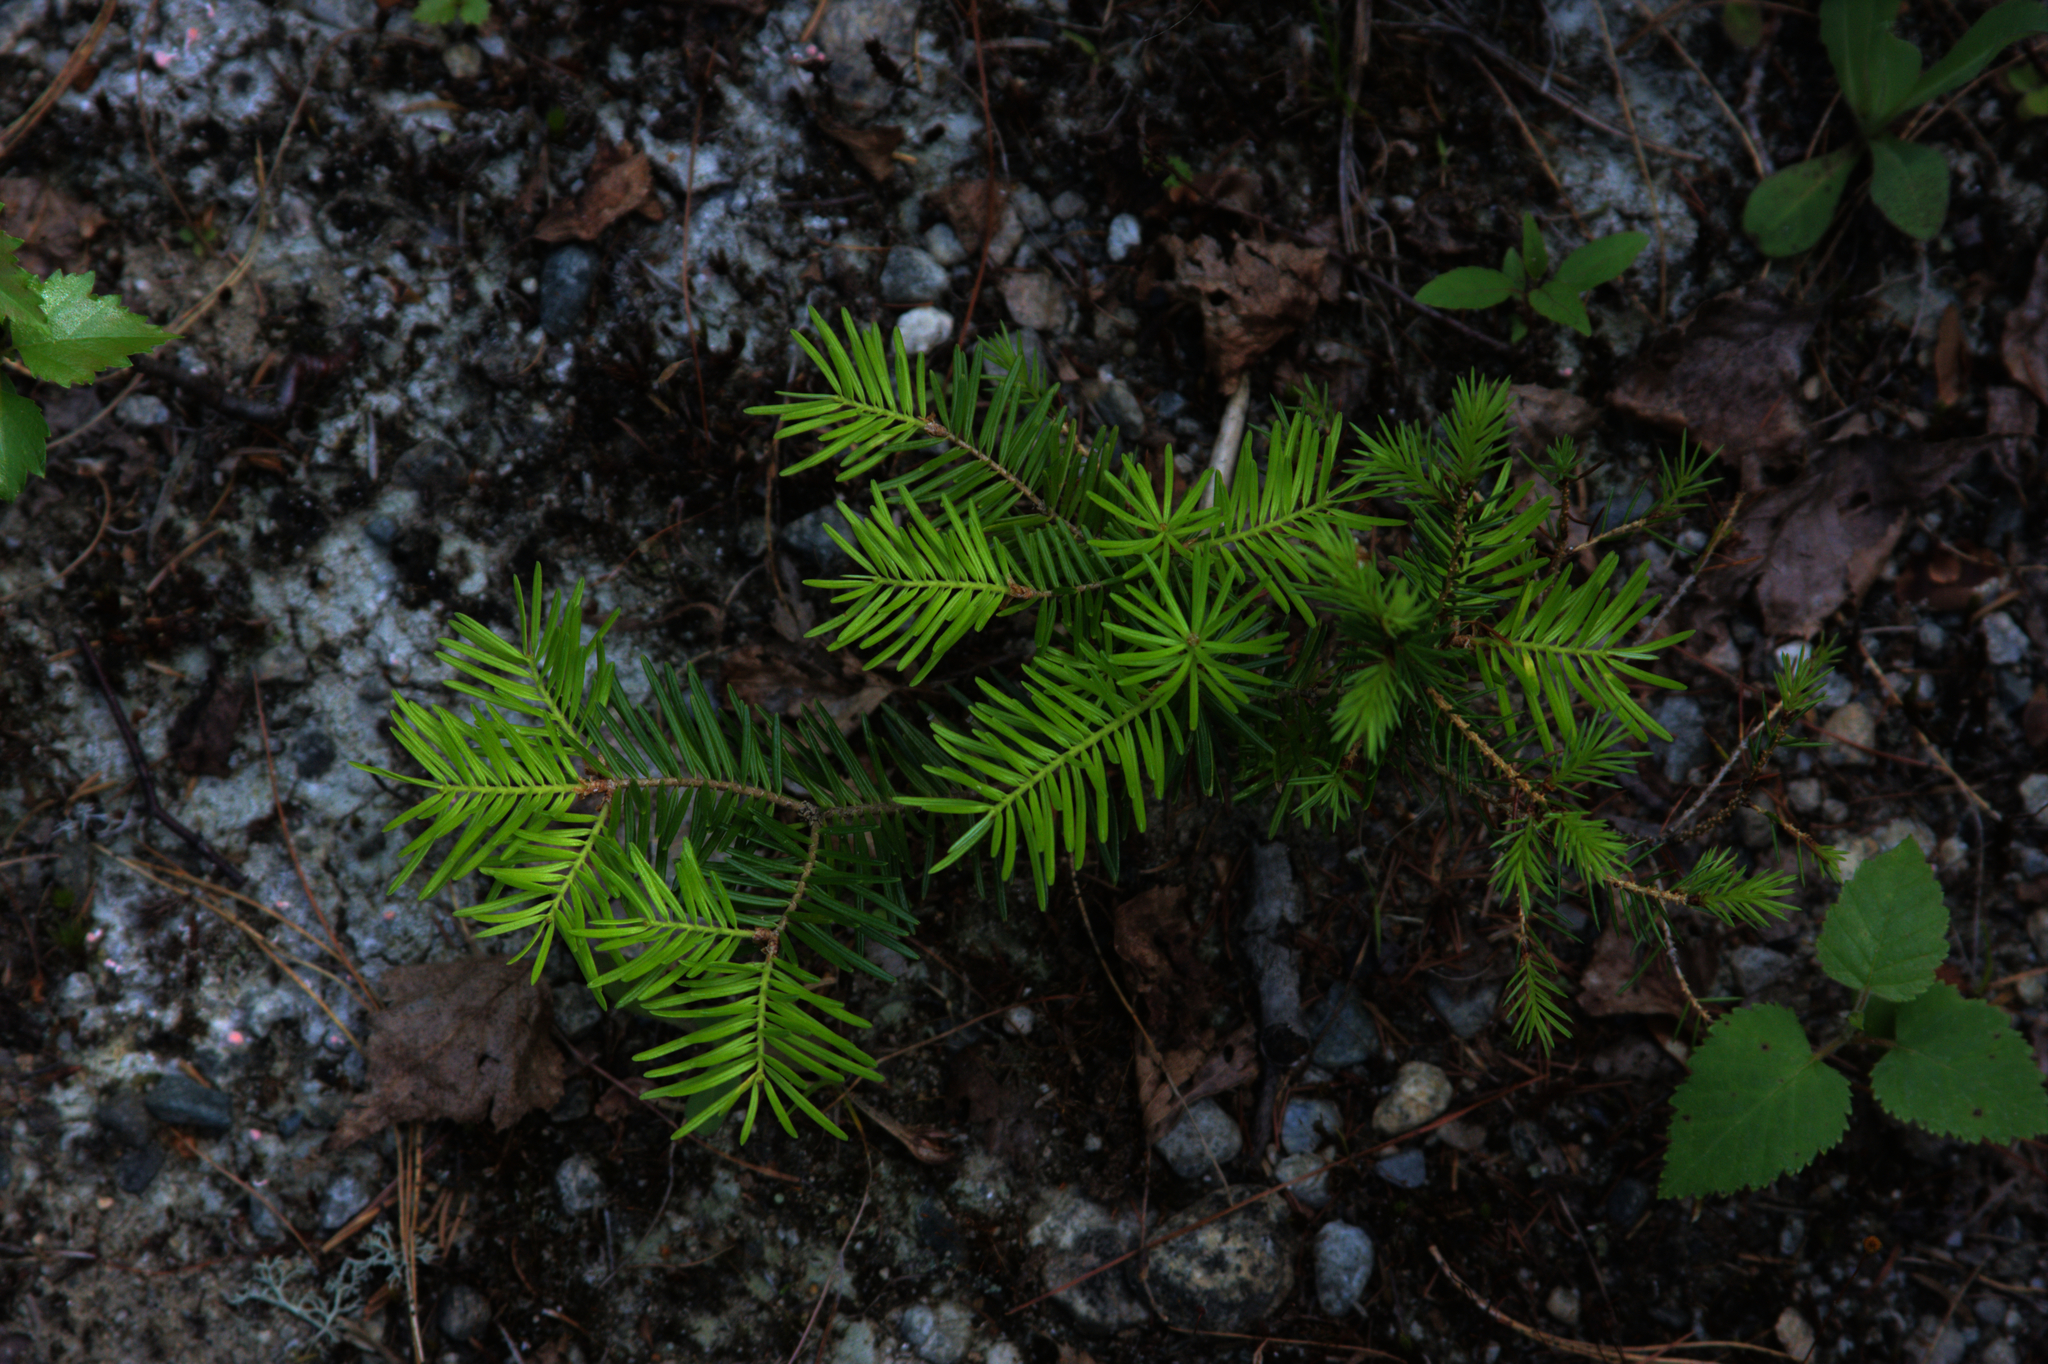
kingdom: Plantae
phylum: Tracheophyta
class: Pinopsida
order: Pinales
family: Pinaceae
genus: Abies
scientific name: Abies balsamea
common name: Balsam fir
